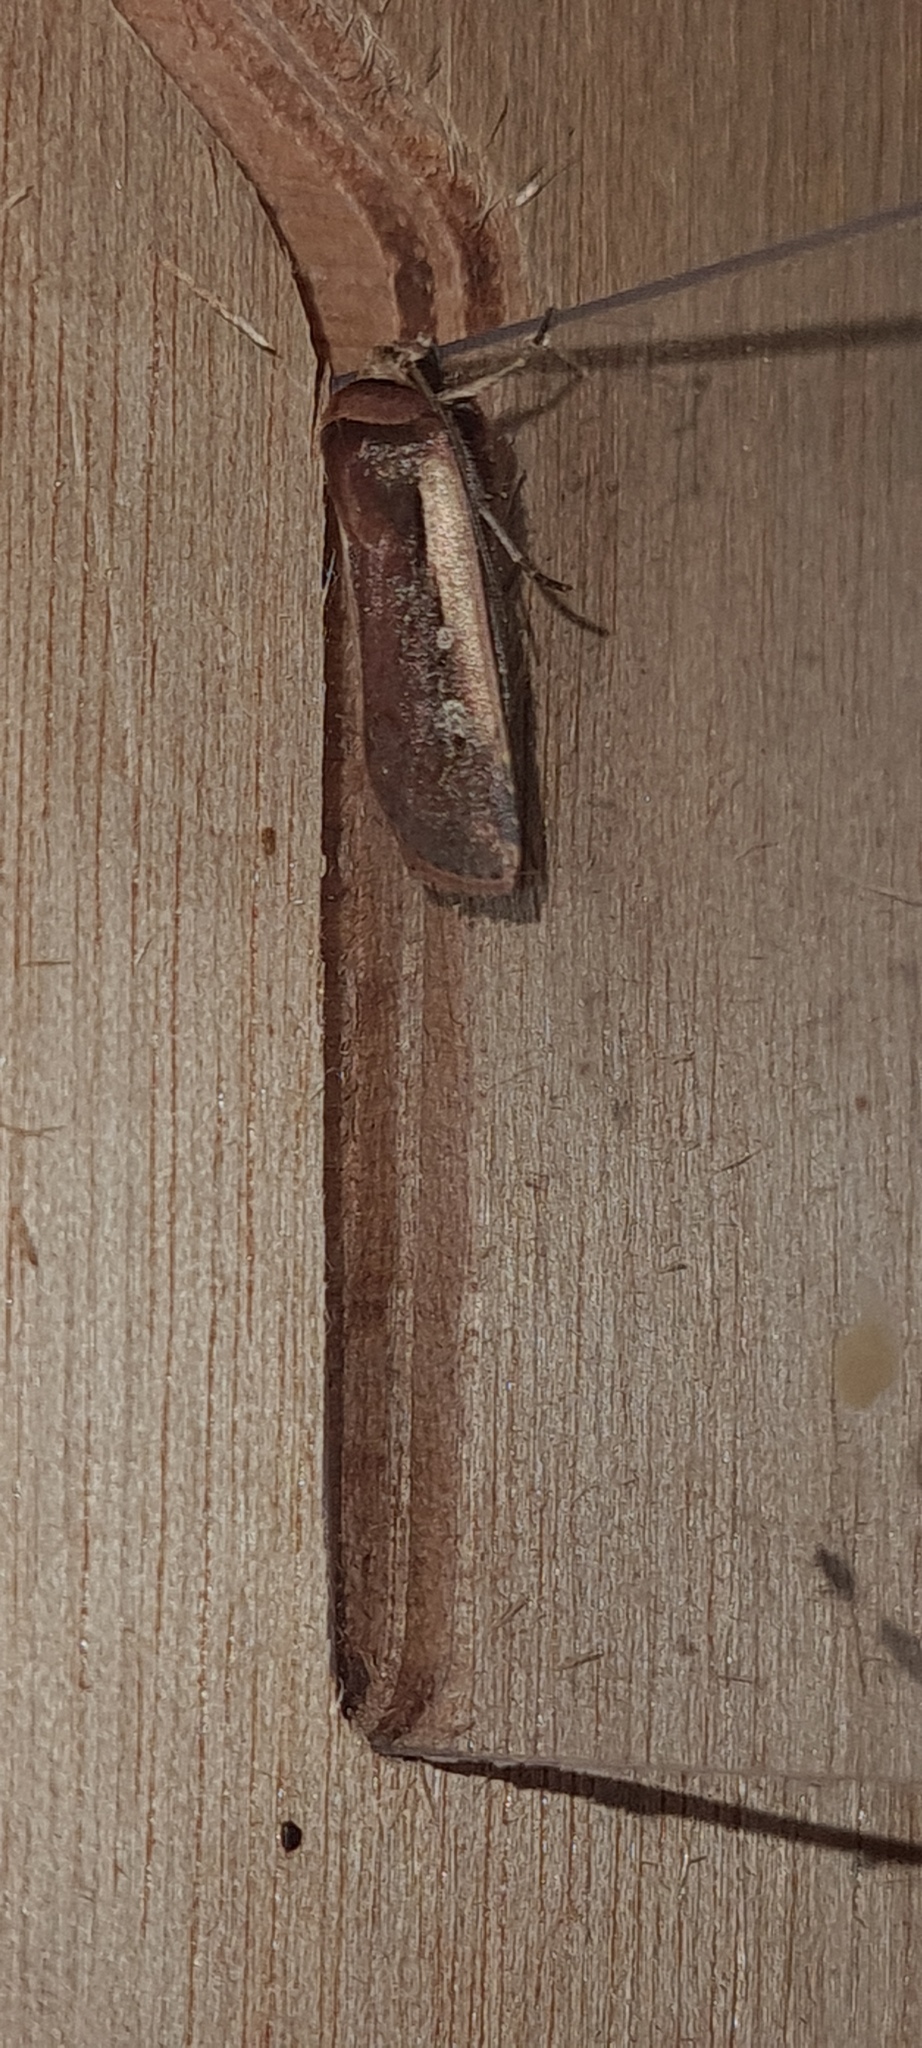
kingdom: Animalia
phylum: Arthropoda
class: Insecta
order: Lepidoptera
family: Noctuidae
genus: Ochropleura
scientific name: Ochropleura plecta
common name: Flame shoulder
